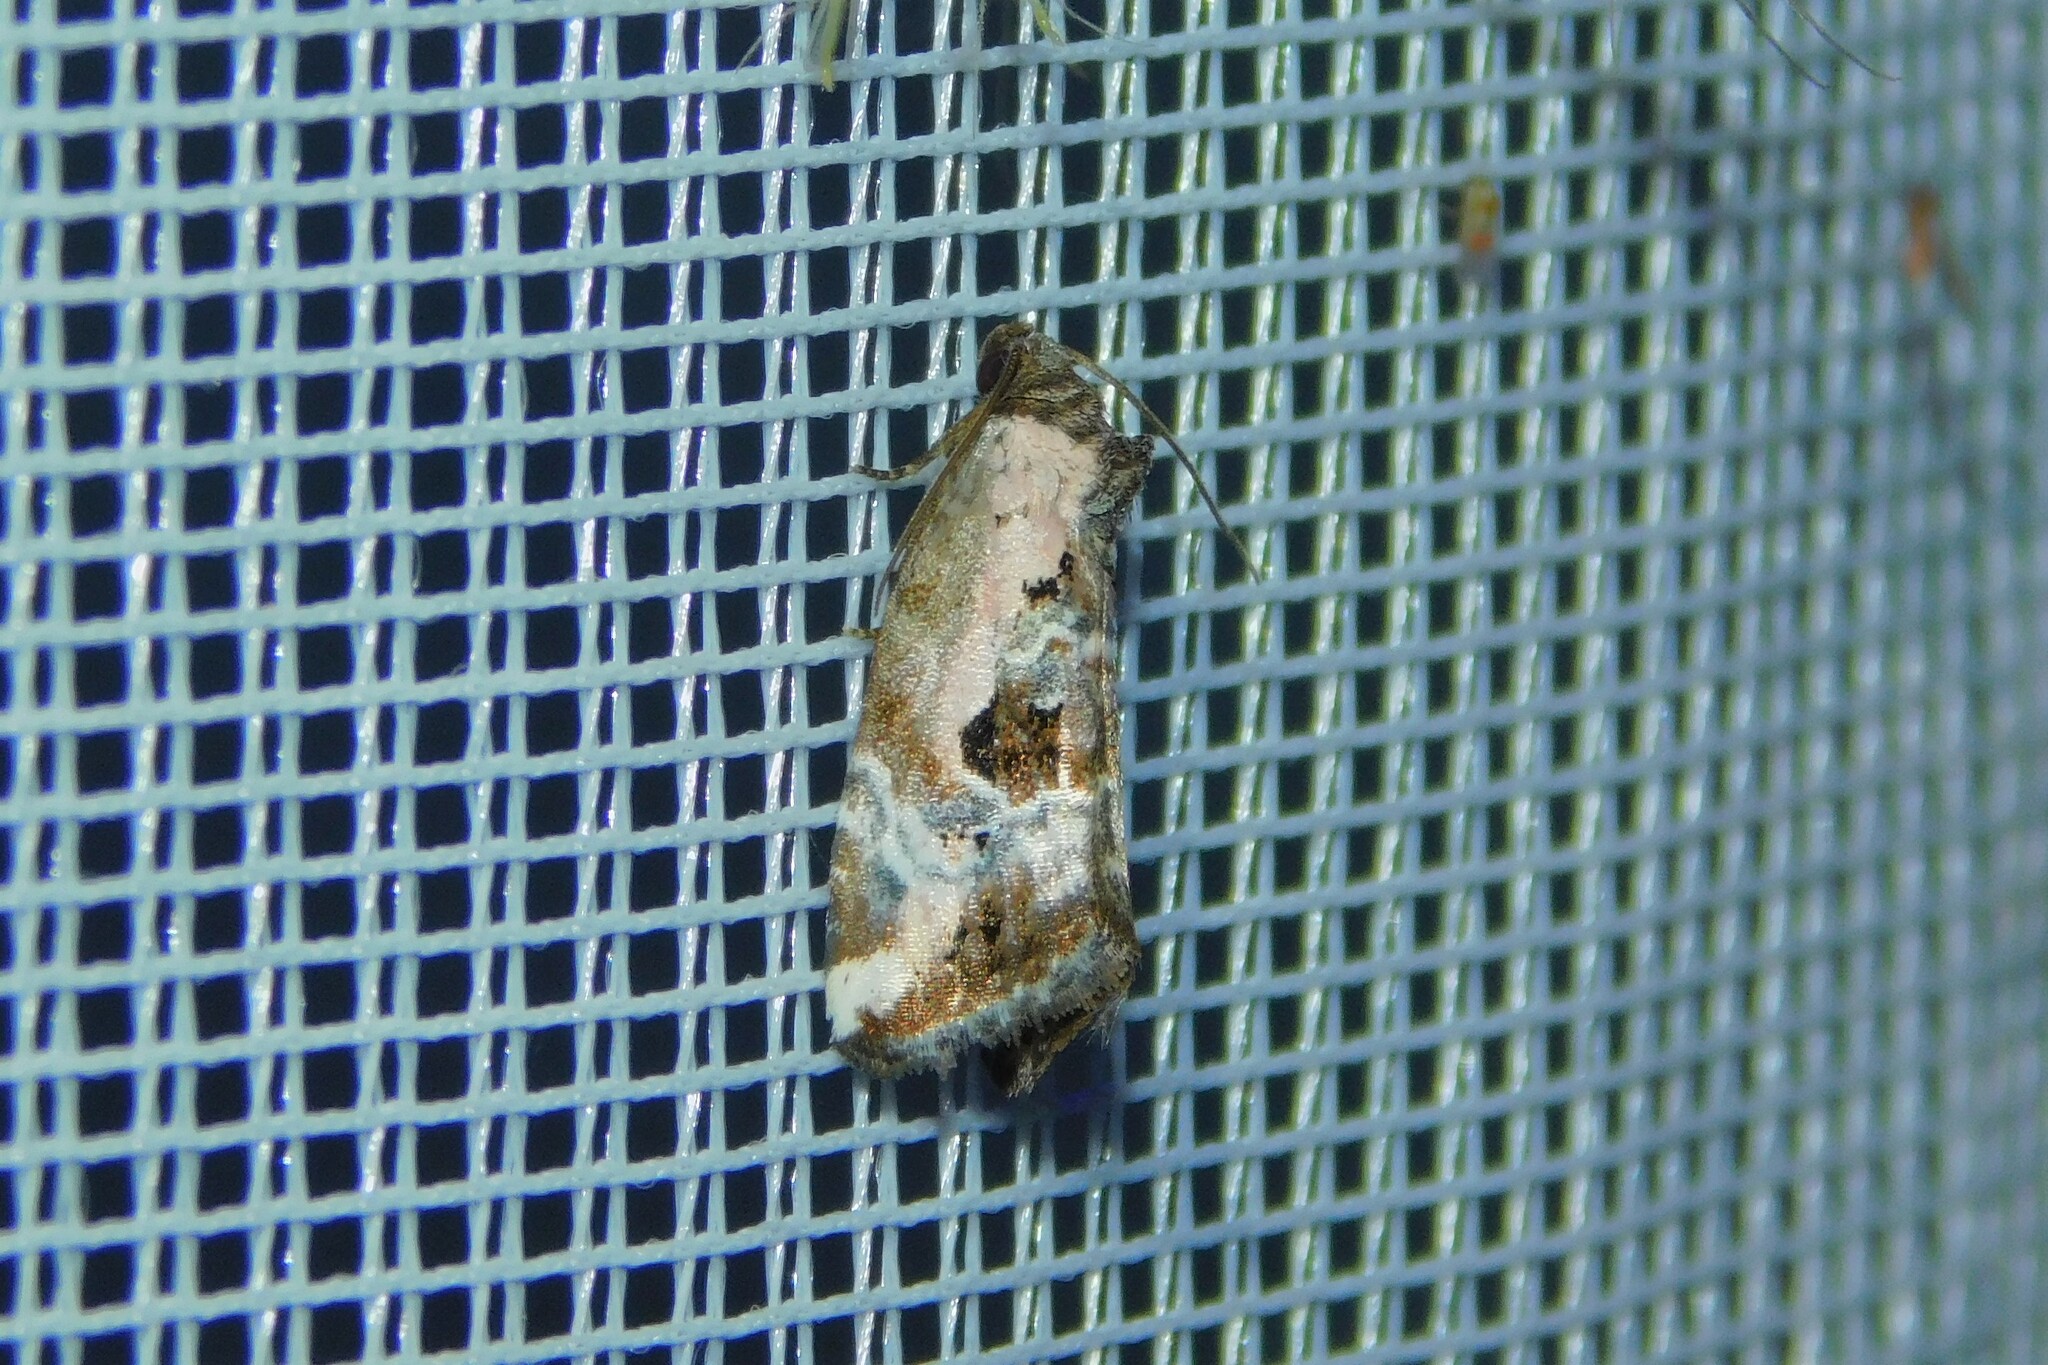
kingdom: Animalia
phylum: Arthropoda
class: Insecta
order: Lepidoptera
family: Noctuidae
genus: Elaphria
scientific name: Elaphria venustula
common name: Rosy marbled
